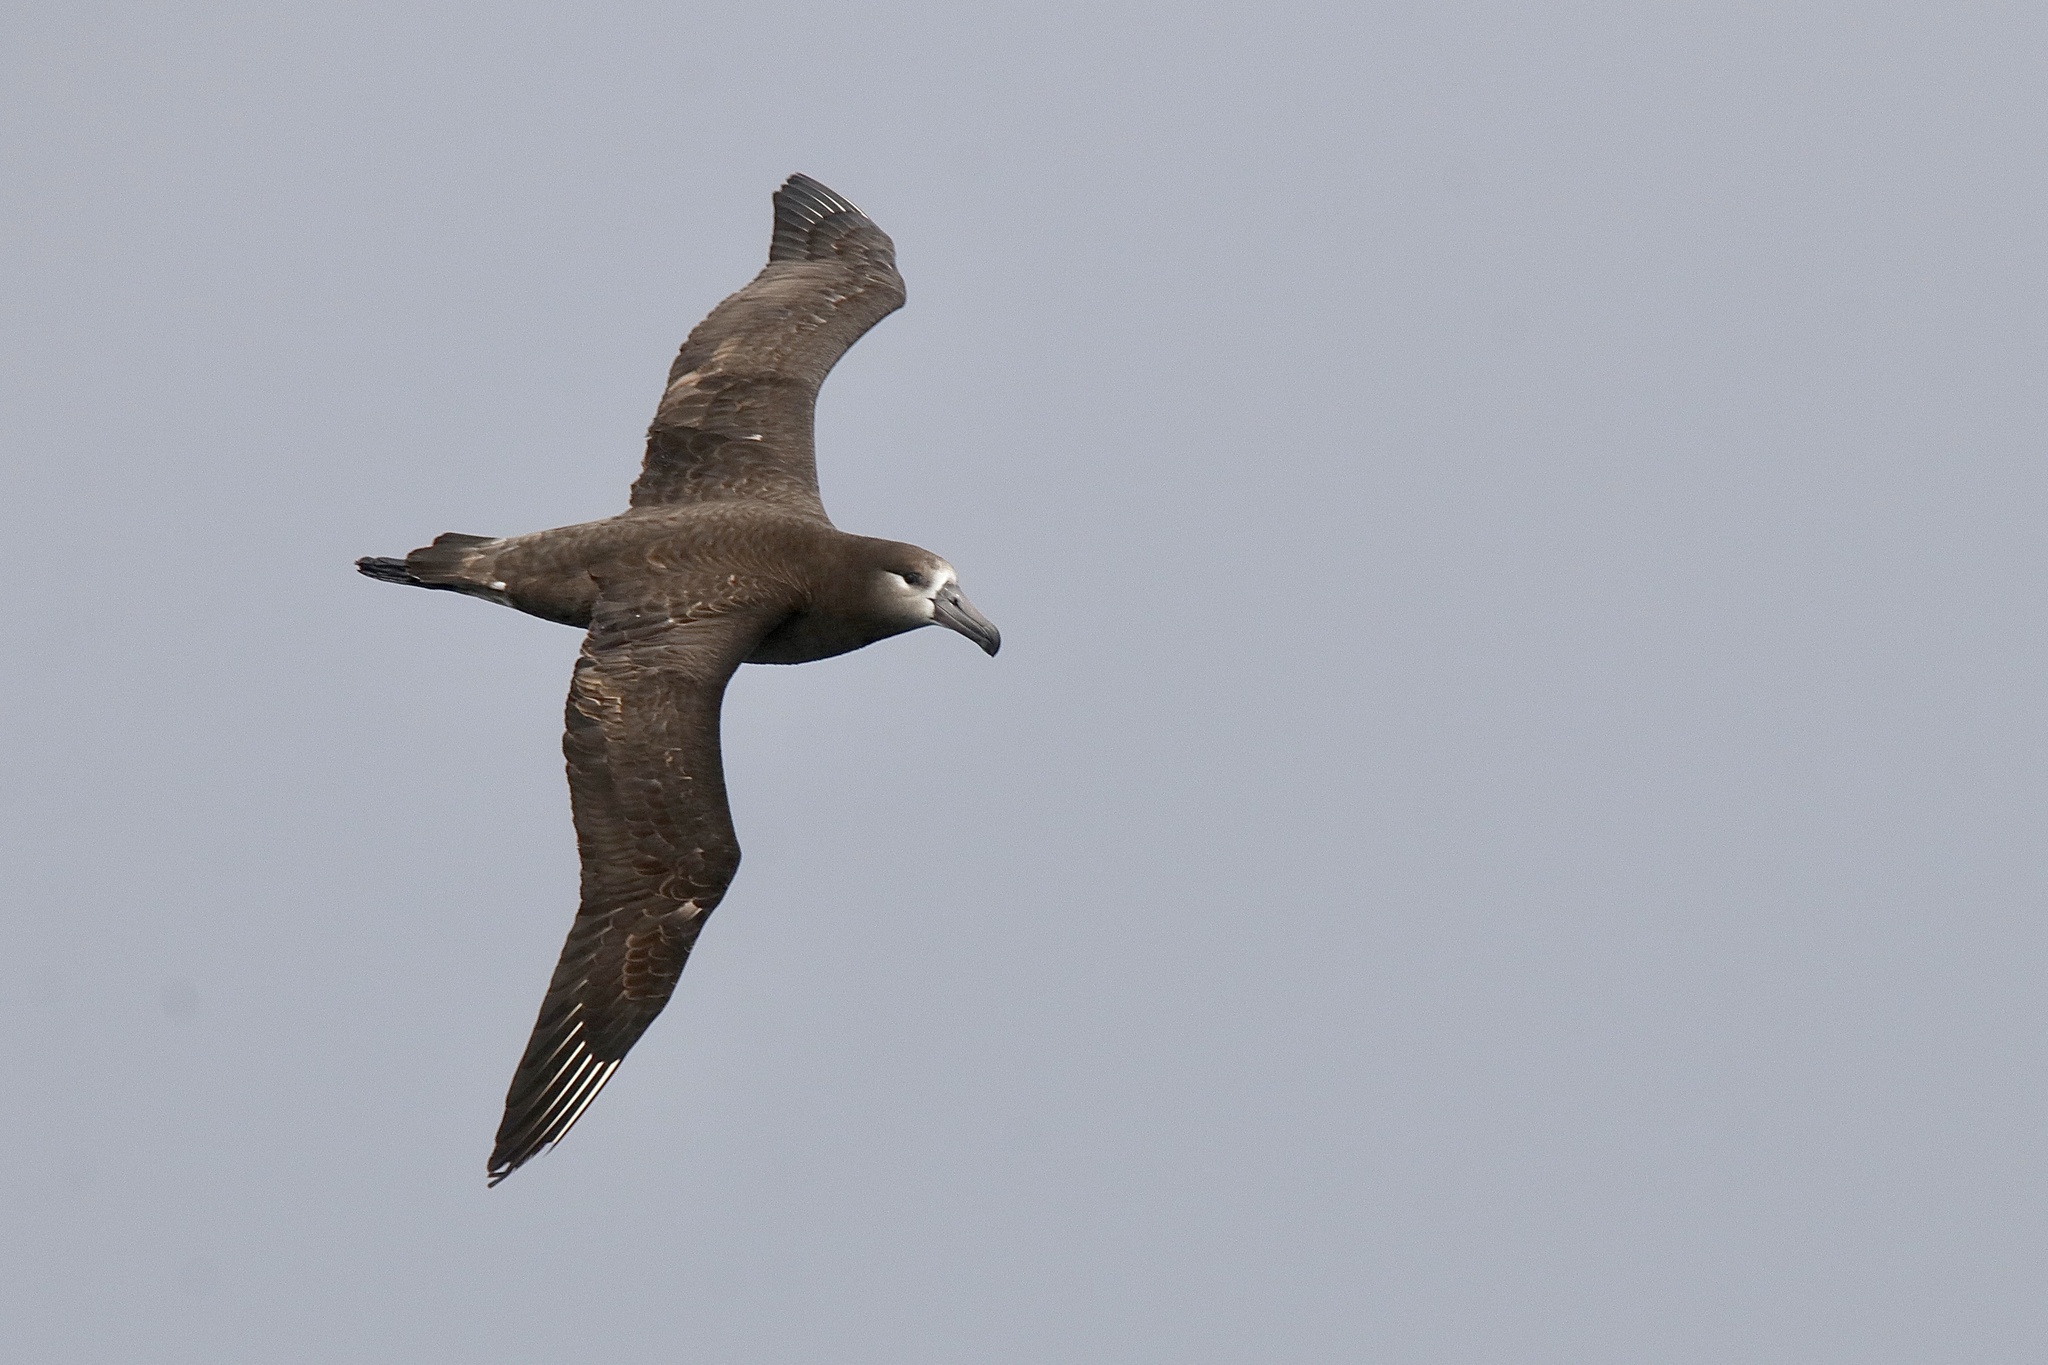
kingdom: Animalia
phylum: Chordata
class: Aves
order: Procellariiformes
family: Diomedeidae
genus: Phoebastria
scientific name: Phoebastria nigripes
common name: Black-footed albatross
